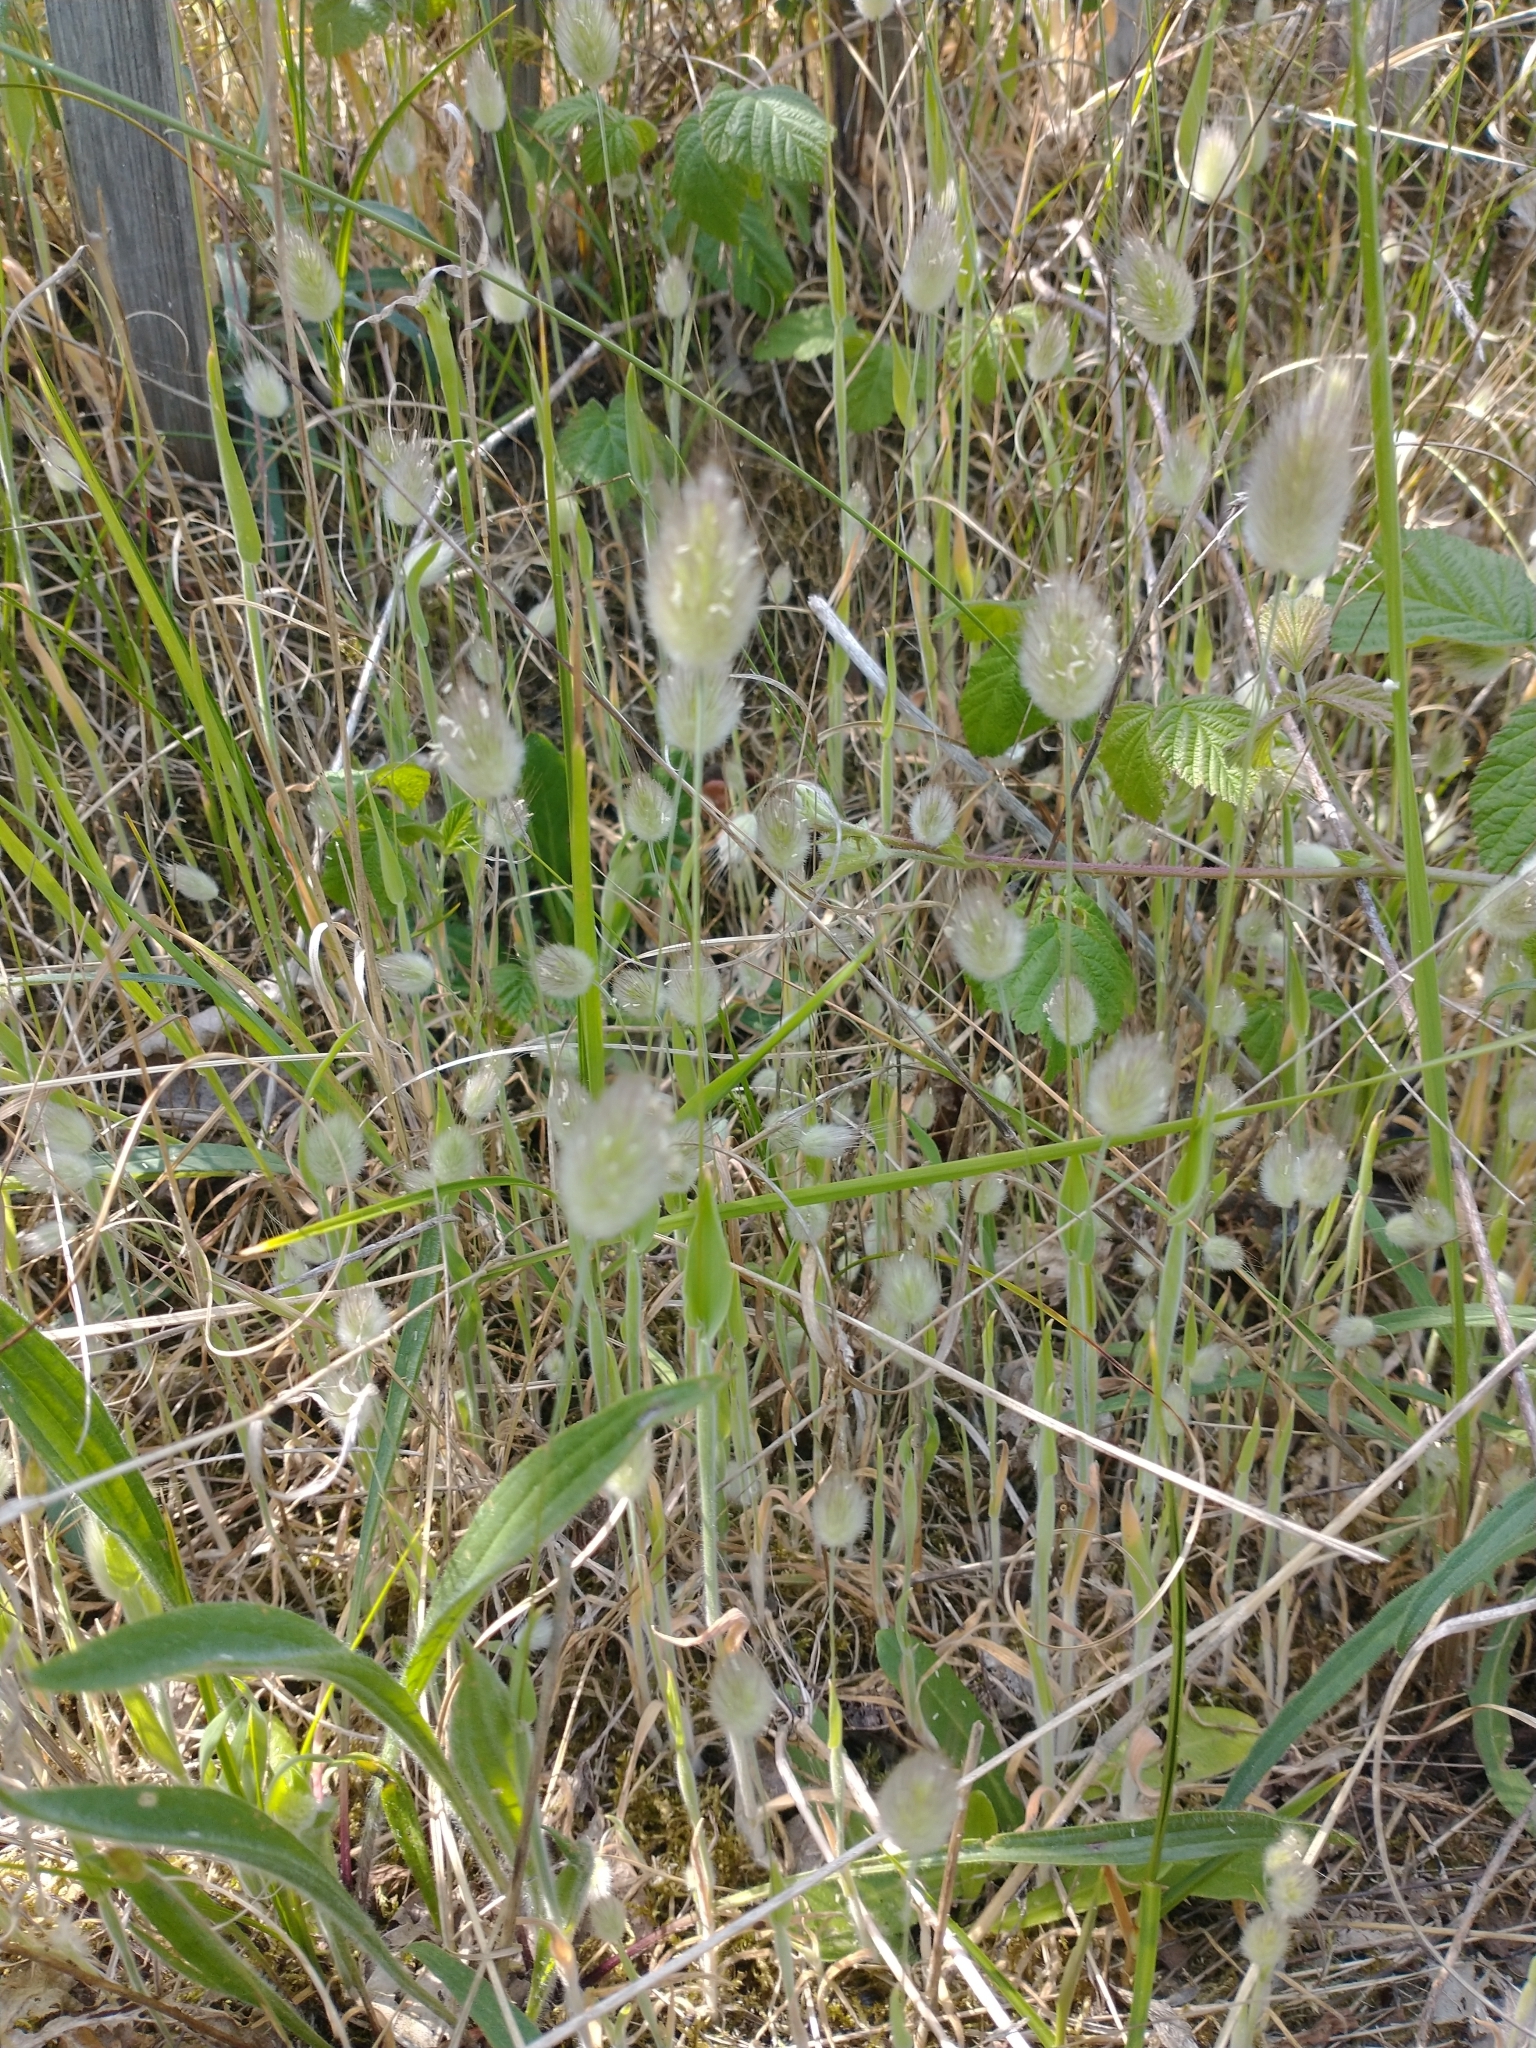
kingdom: Plantae
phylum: Tracheophyta
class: Liliopsida
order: Poales
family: Poaceae
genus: Lagurus
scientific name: Lagurus ovatus
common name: Hare's-tail
